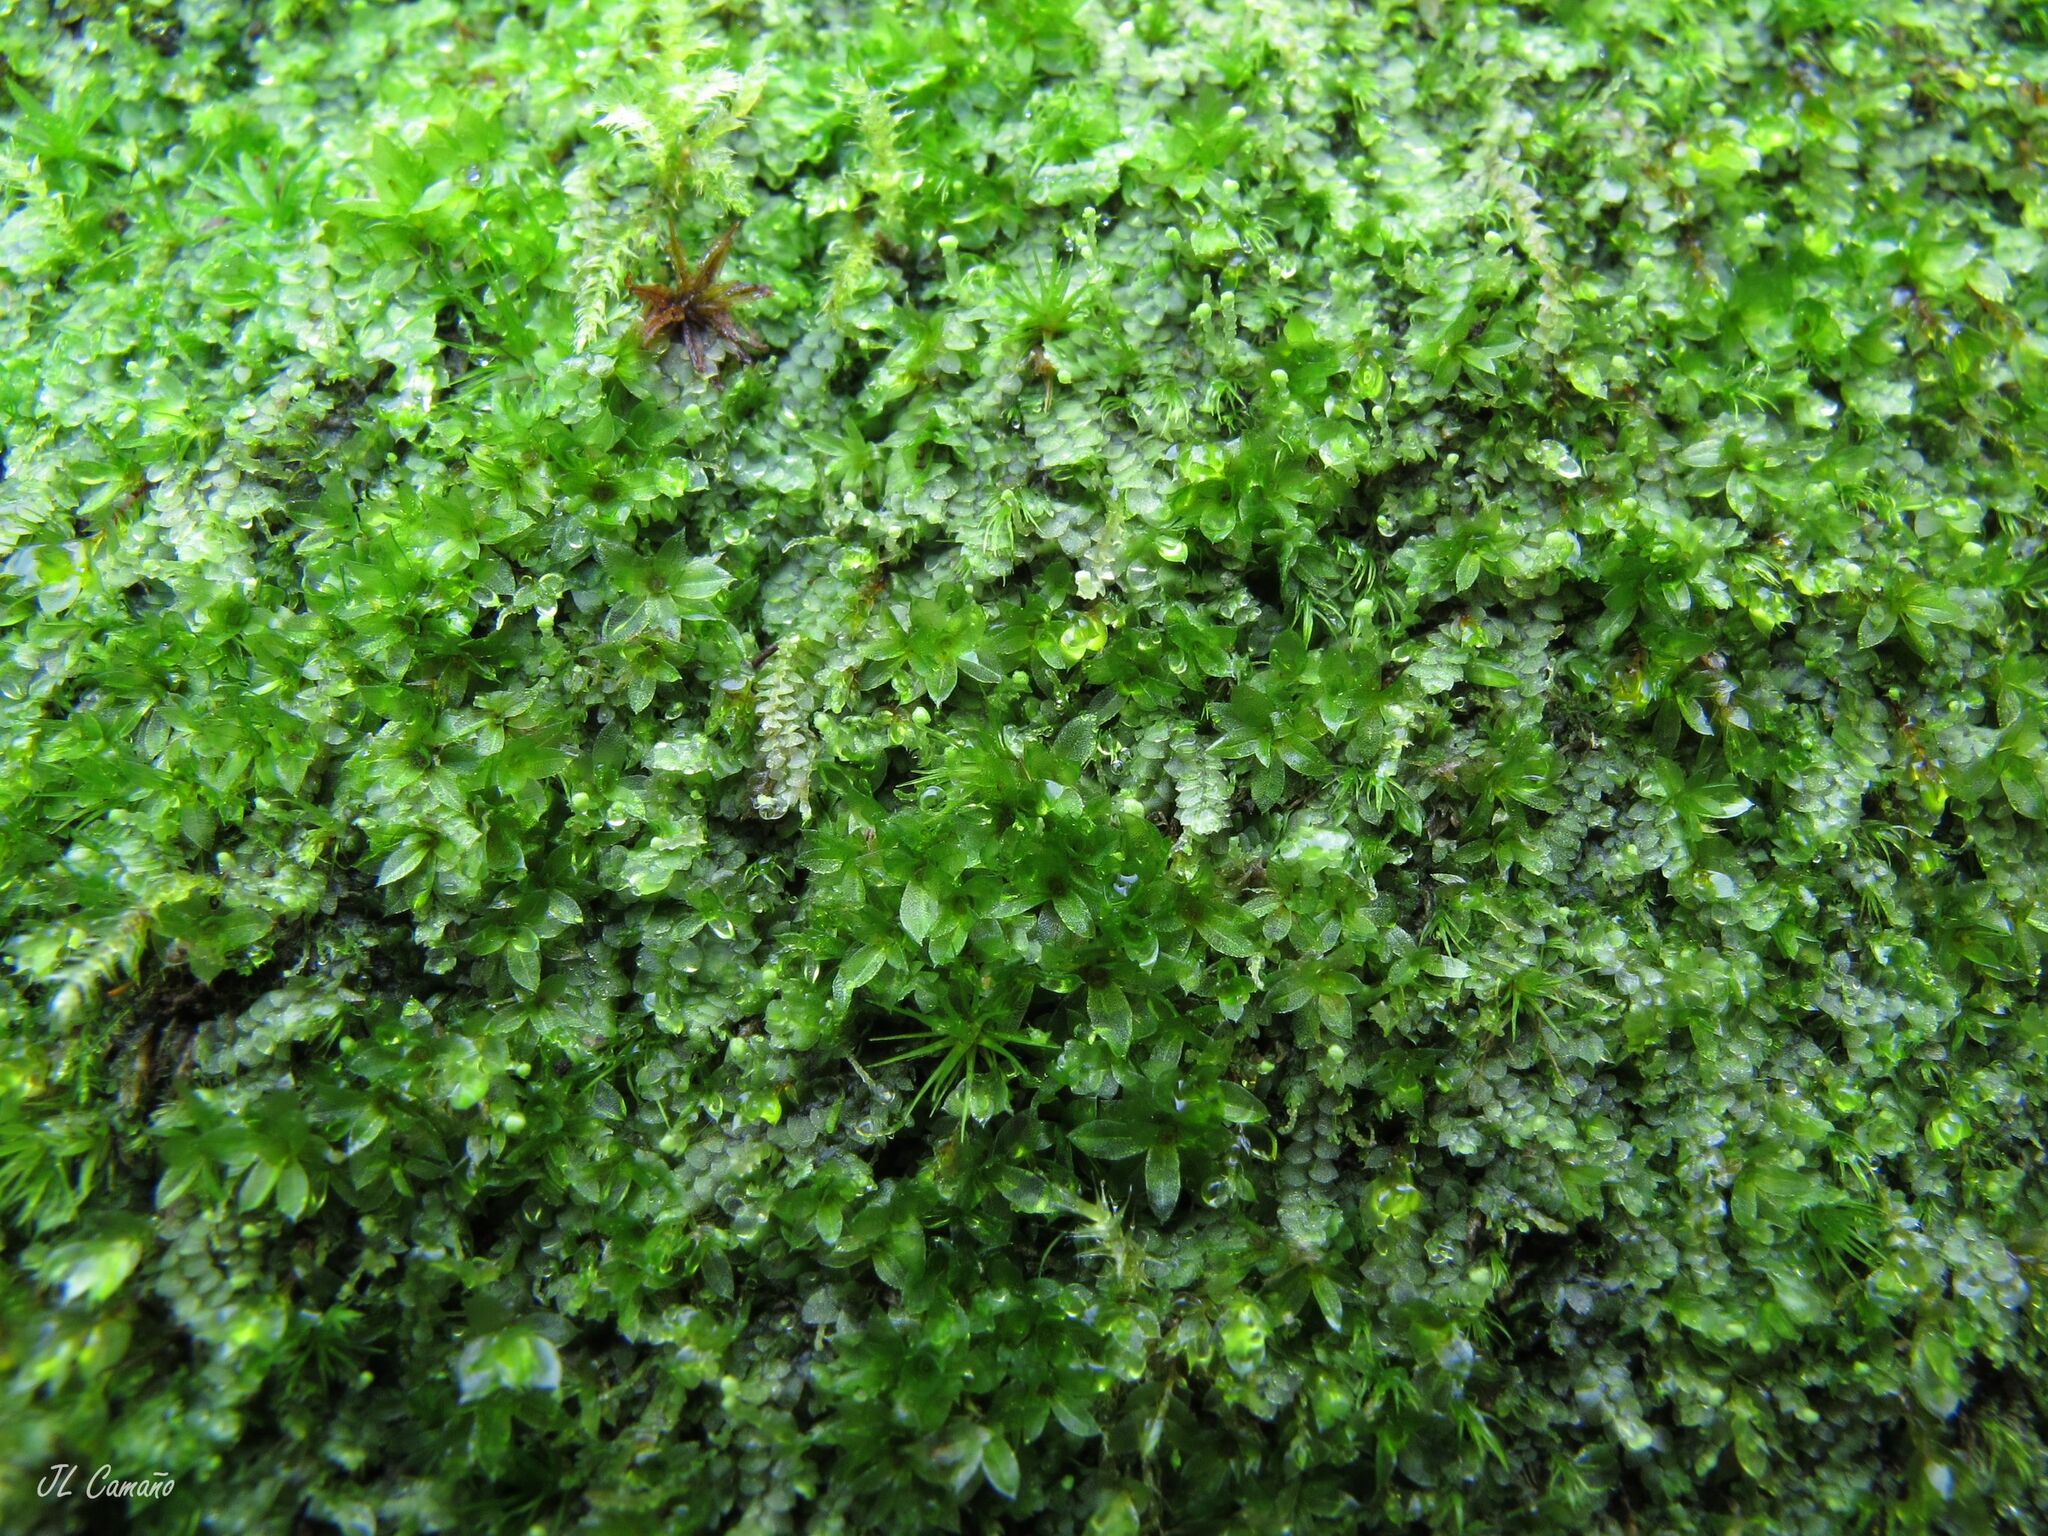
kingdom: Plantae
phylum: Bryophyta
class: Bryopsida
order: Bryales
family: Mniaceae
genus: Epipterygium
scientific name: Epipterygium tozeri
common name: Tozer's thread-moss
